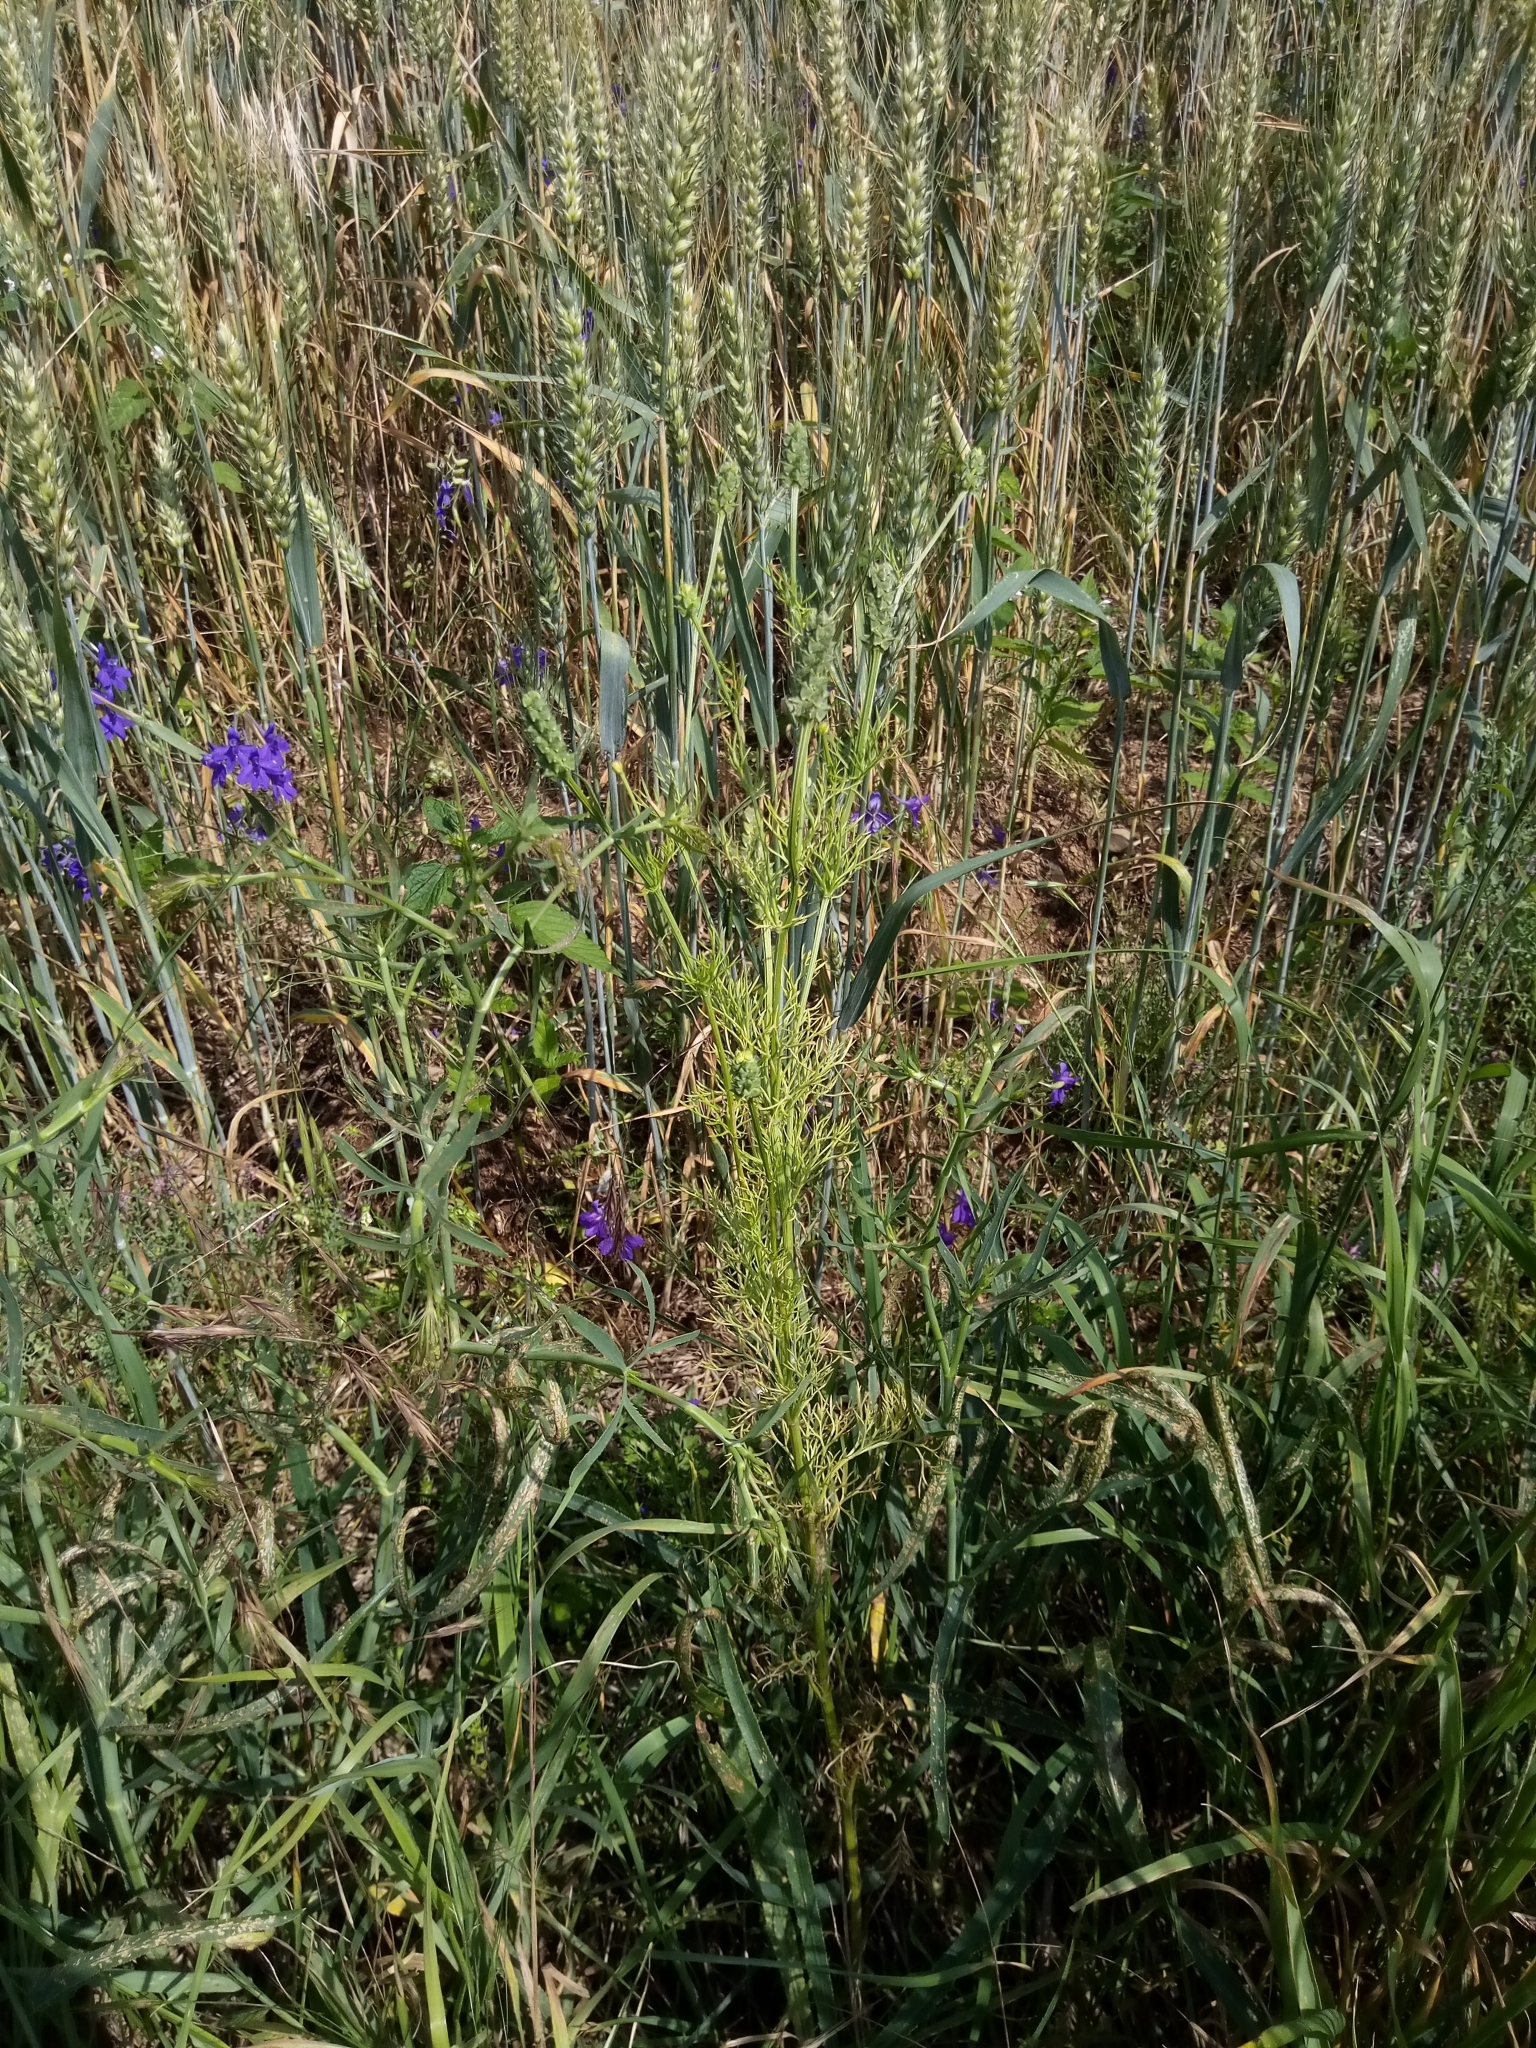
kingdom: Plantae
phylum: Tracheophyta
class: Magnoliopsida
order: Ranunculales
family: Ranunculaceae
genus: Adonis
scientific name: Adonis aestivalis
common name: Summer pheasant's-eye
